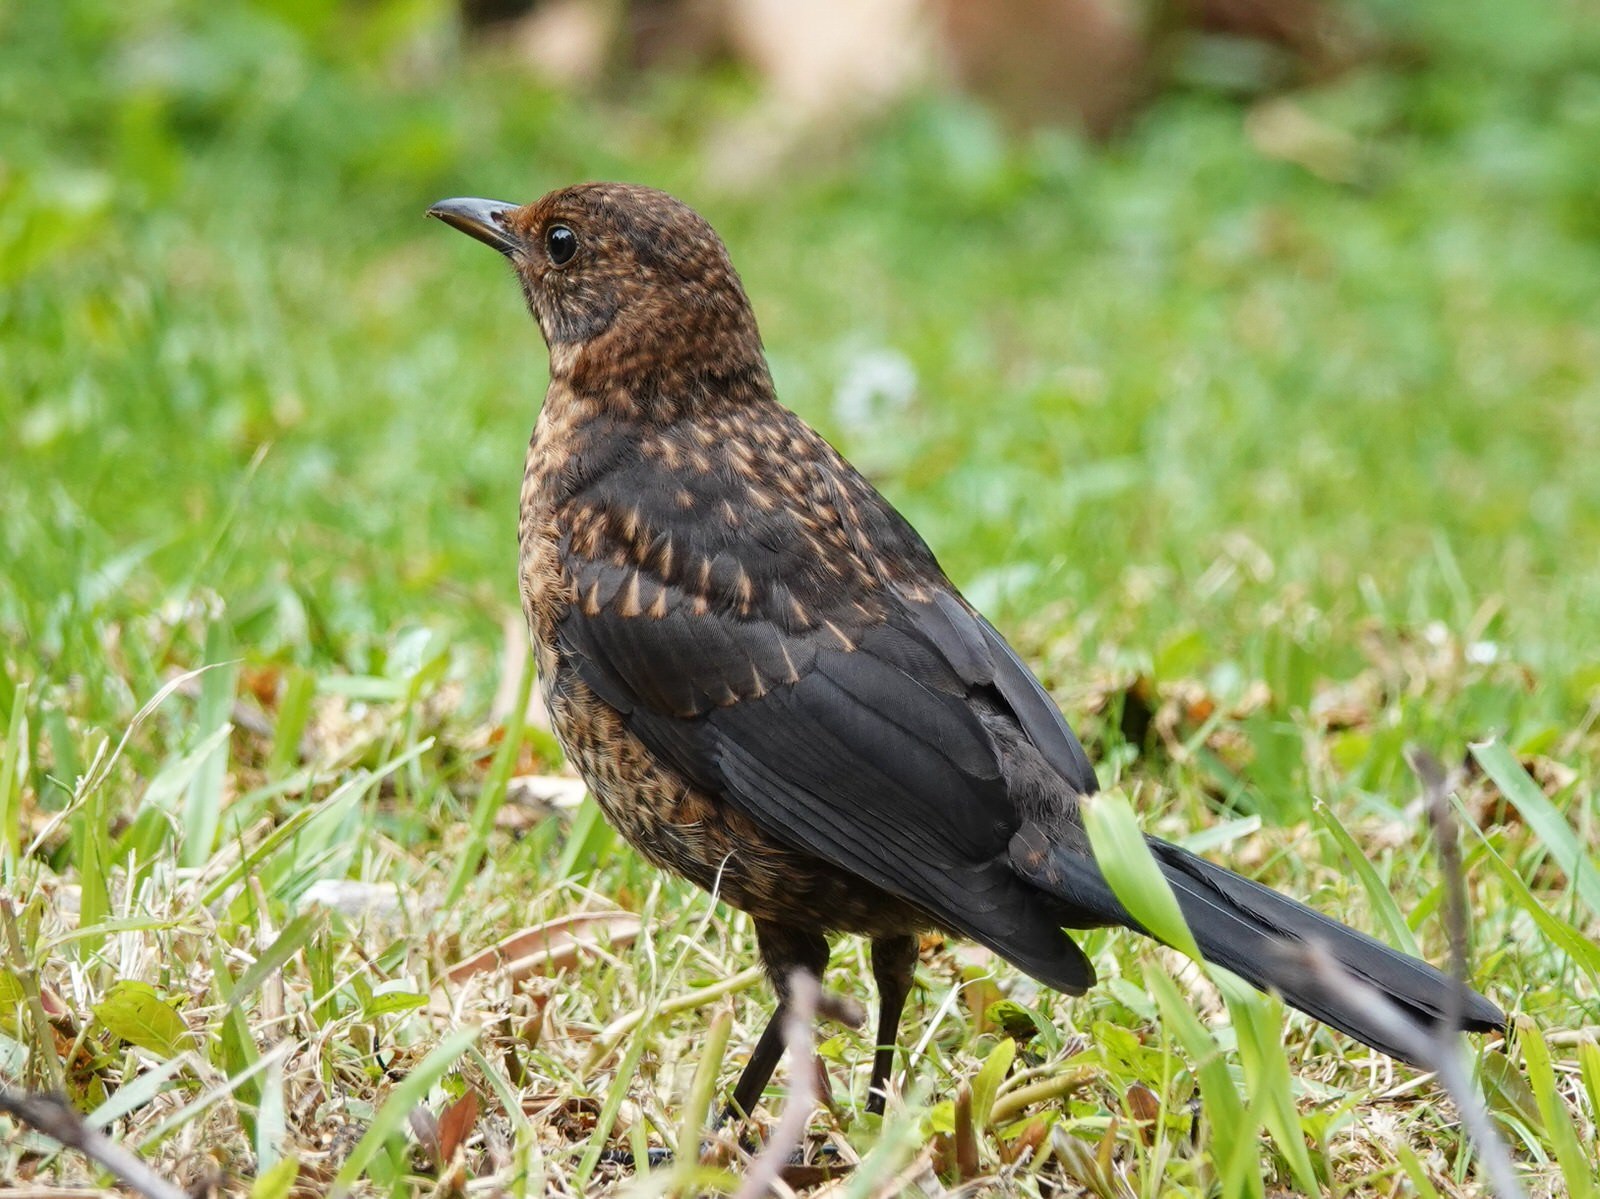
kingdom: Animalia
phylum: Chordata
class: Aves
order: Passeriformes
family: Turdidae
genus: Turdus
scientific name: Turdus merula
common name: Common blackbird
